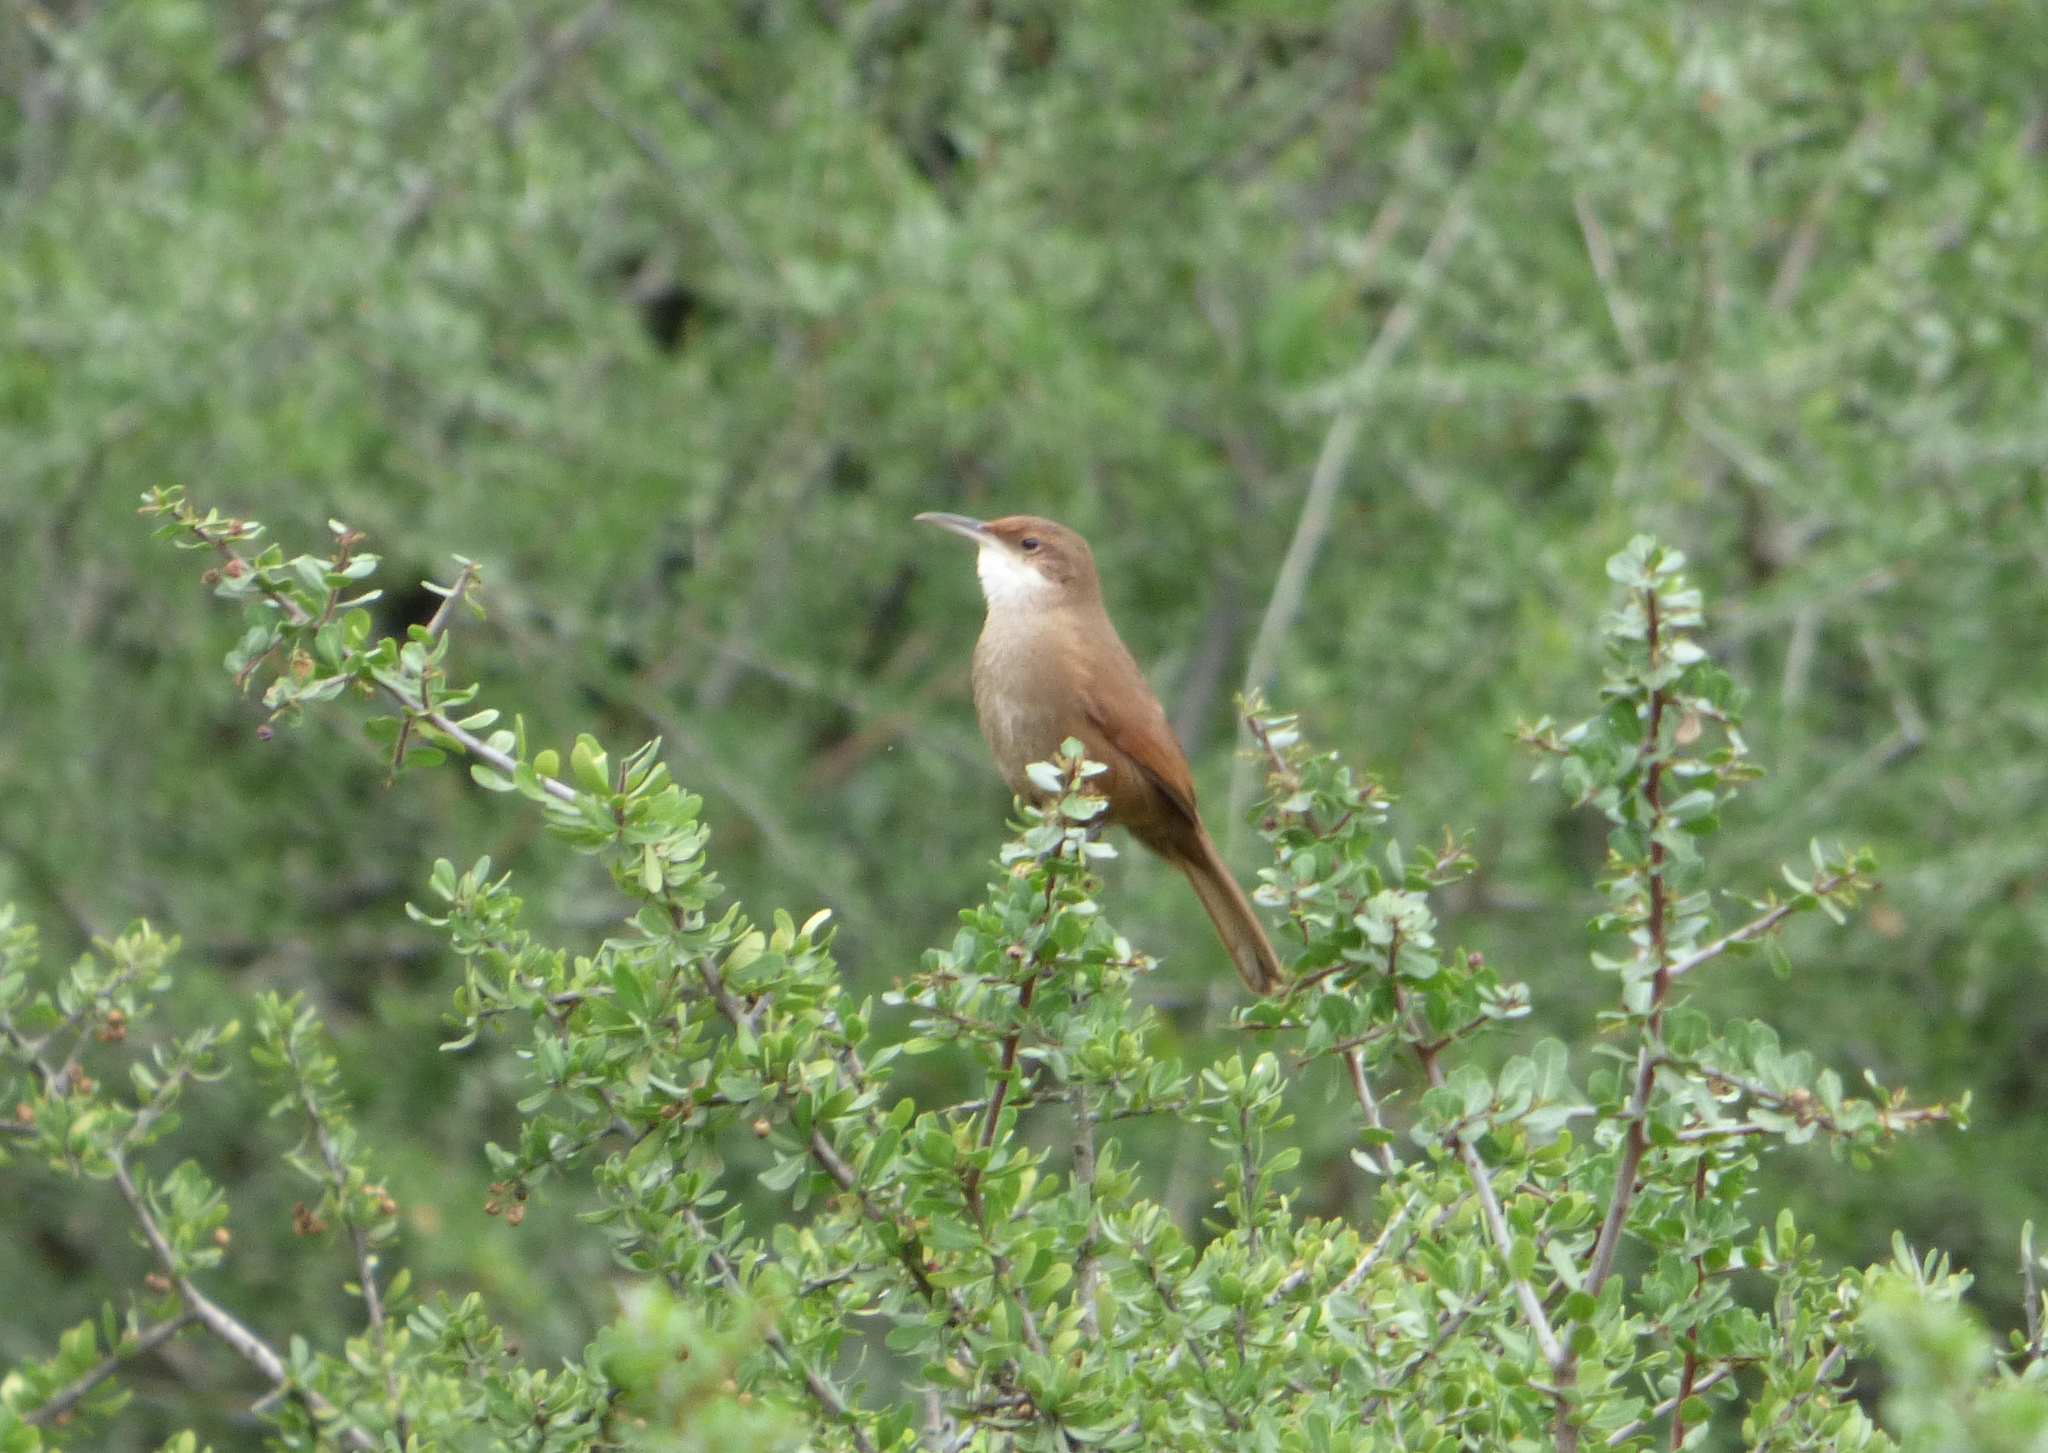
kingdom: Animalia
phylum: Chordata
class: Aves
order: Passeriformes
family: Furnariidae
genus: Upucerthia
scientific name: Upucerthia certhioides
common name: Chaco earthcreeper
